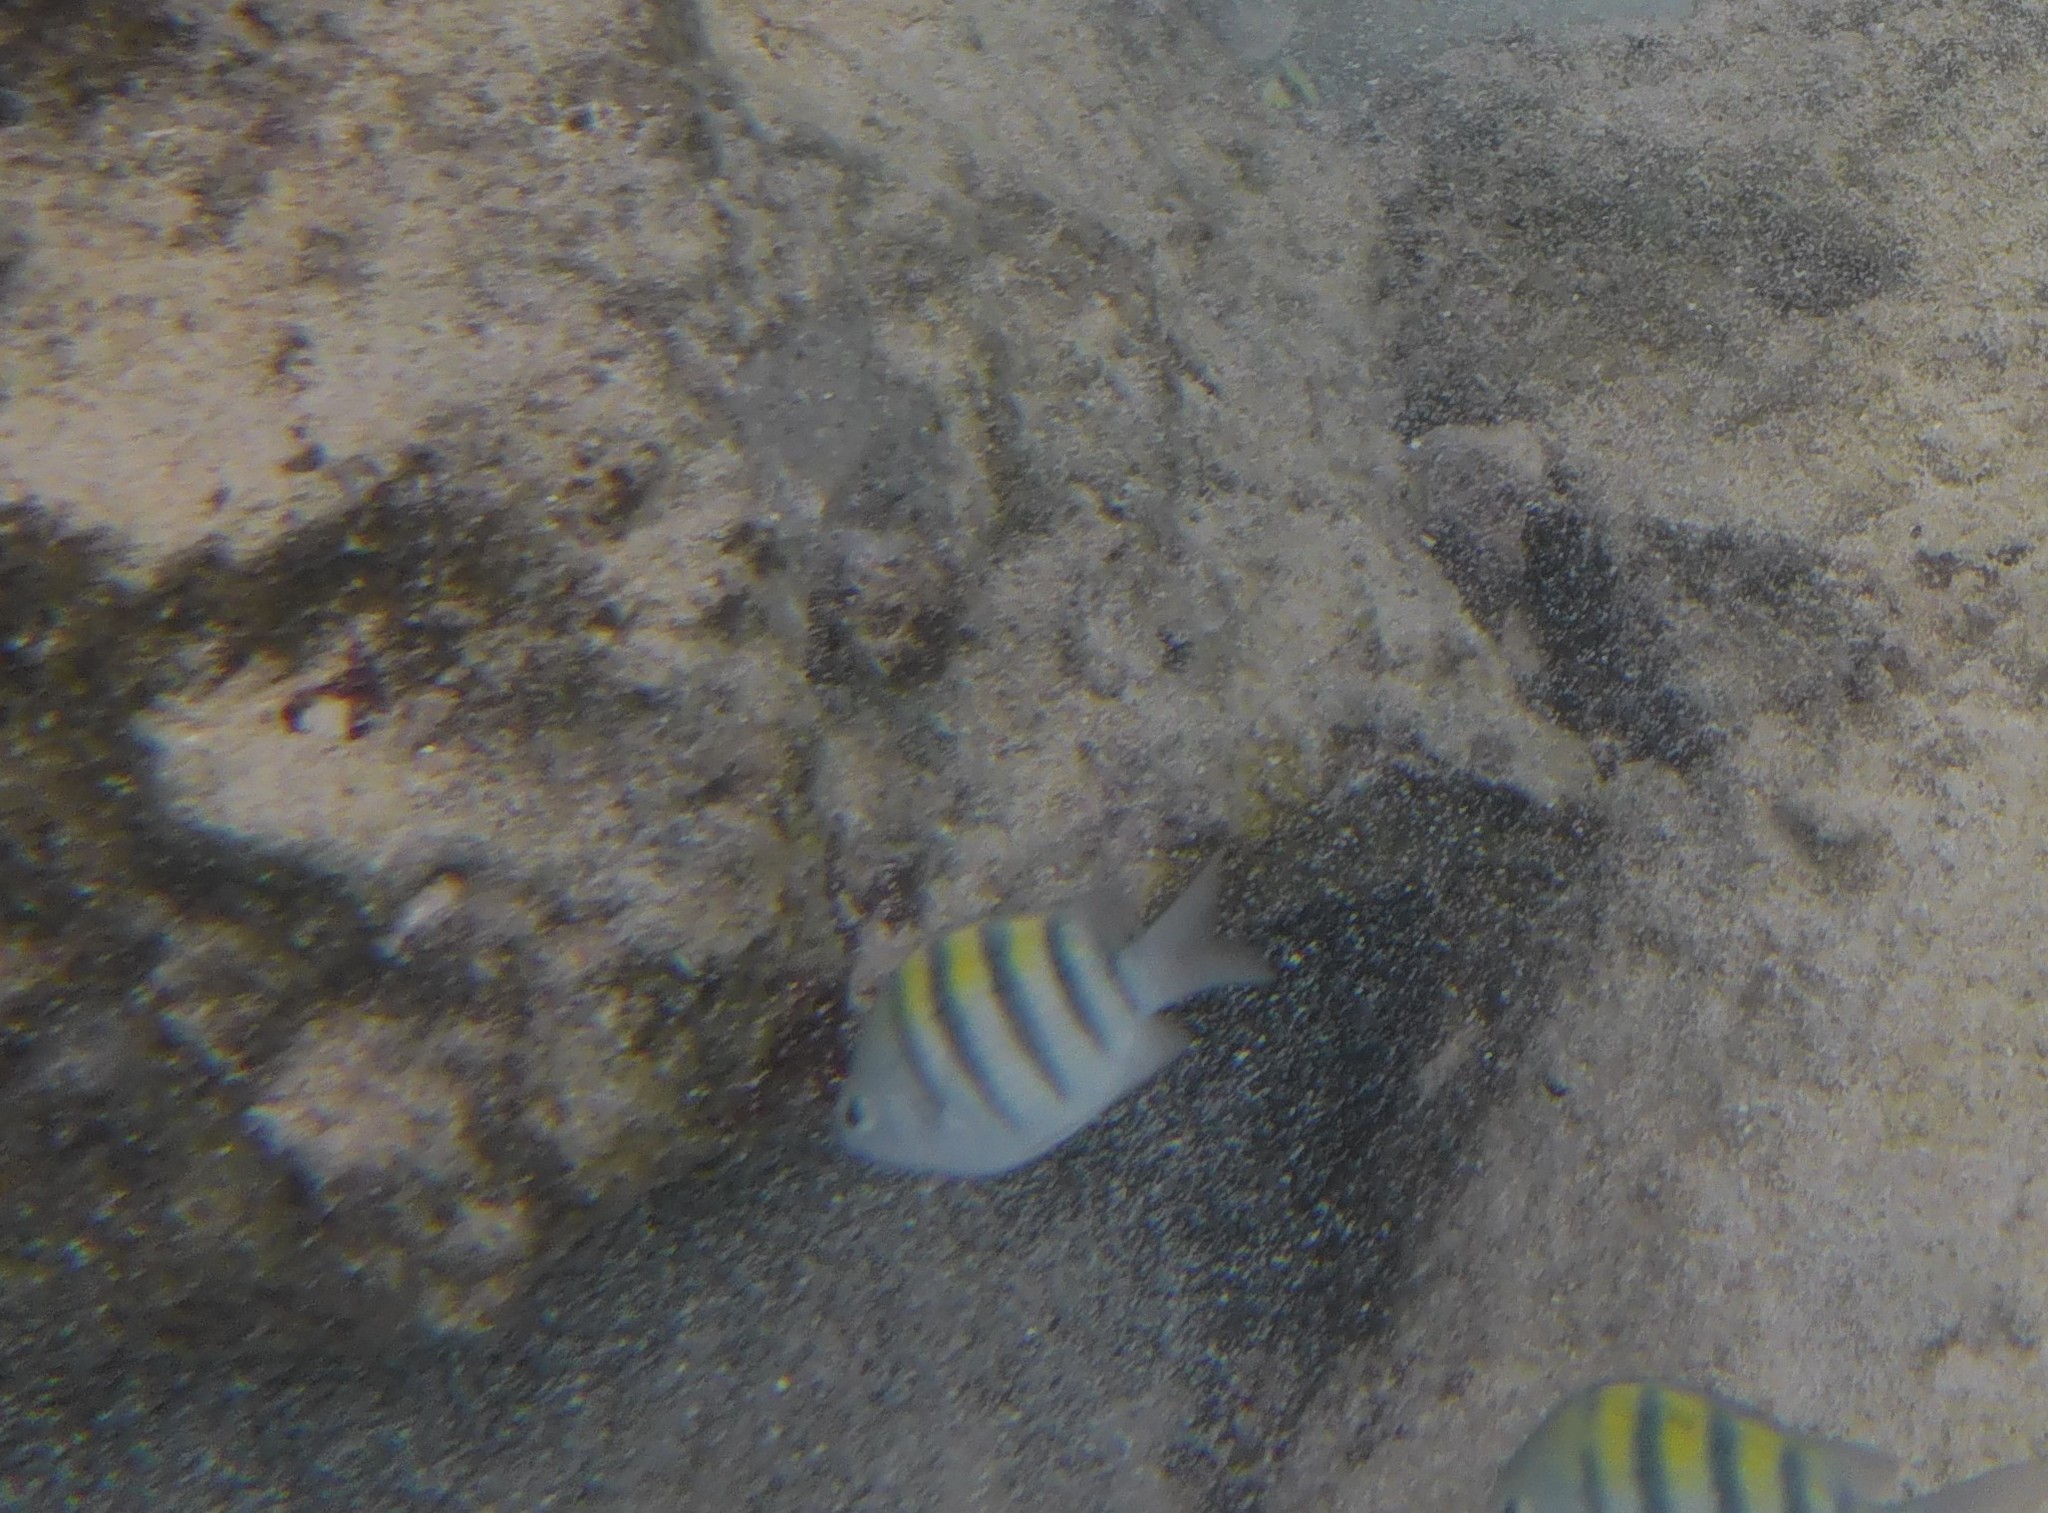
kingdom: Animalia
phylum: Chordata
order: Perciformes
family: Pomacentridae
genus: Abudefduf
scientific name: Abudefduf saxatilis
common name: Sergeant major
